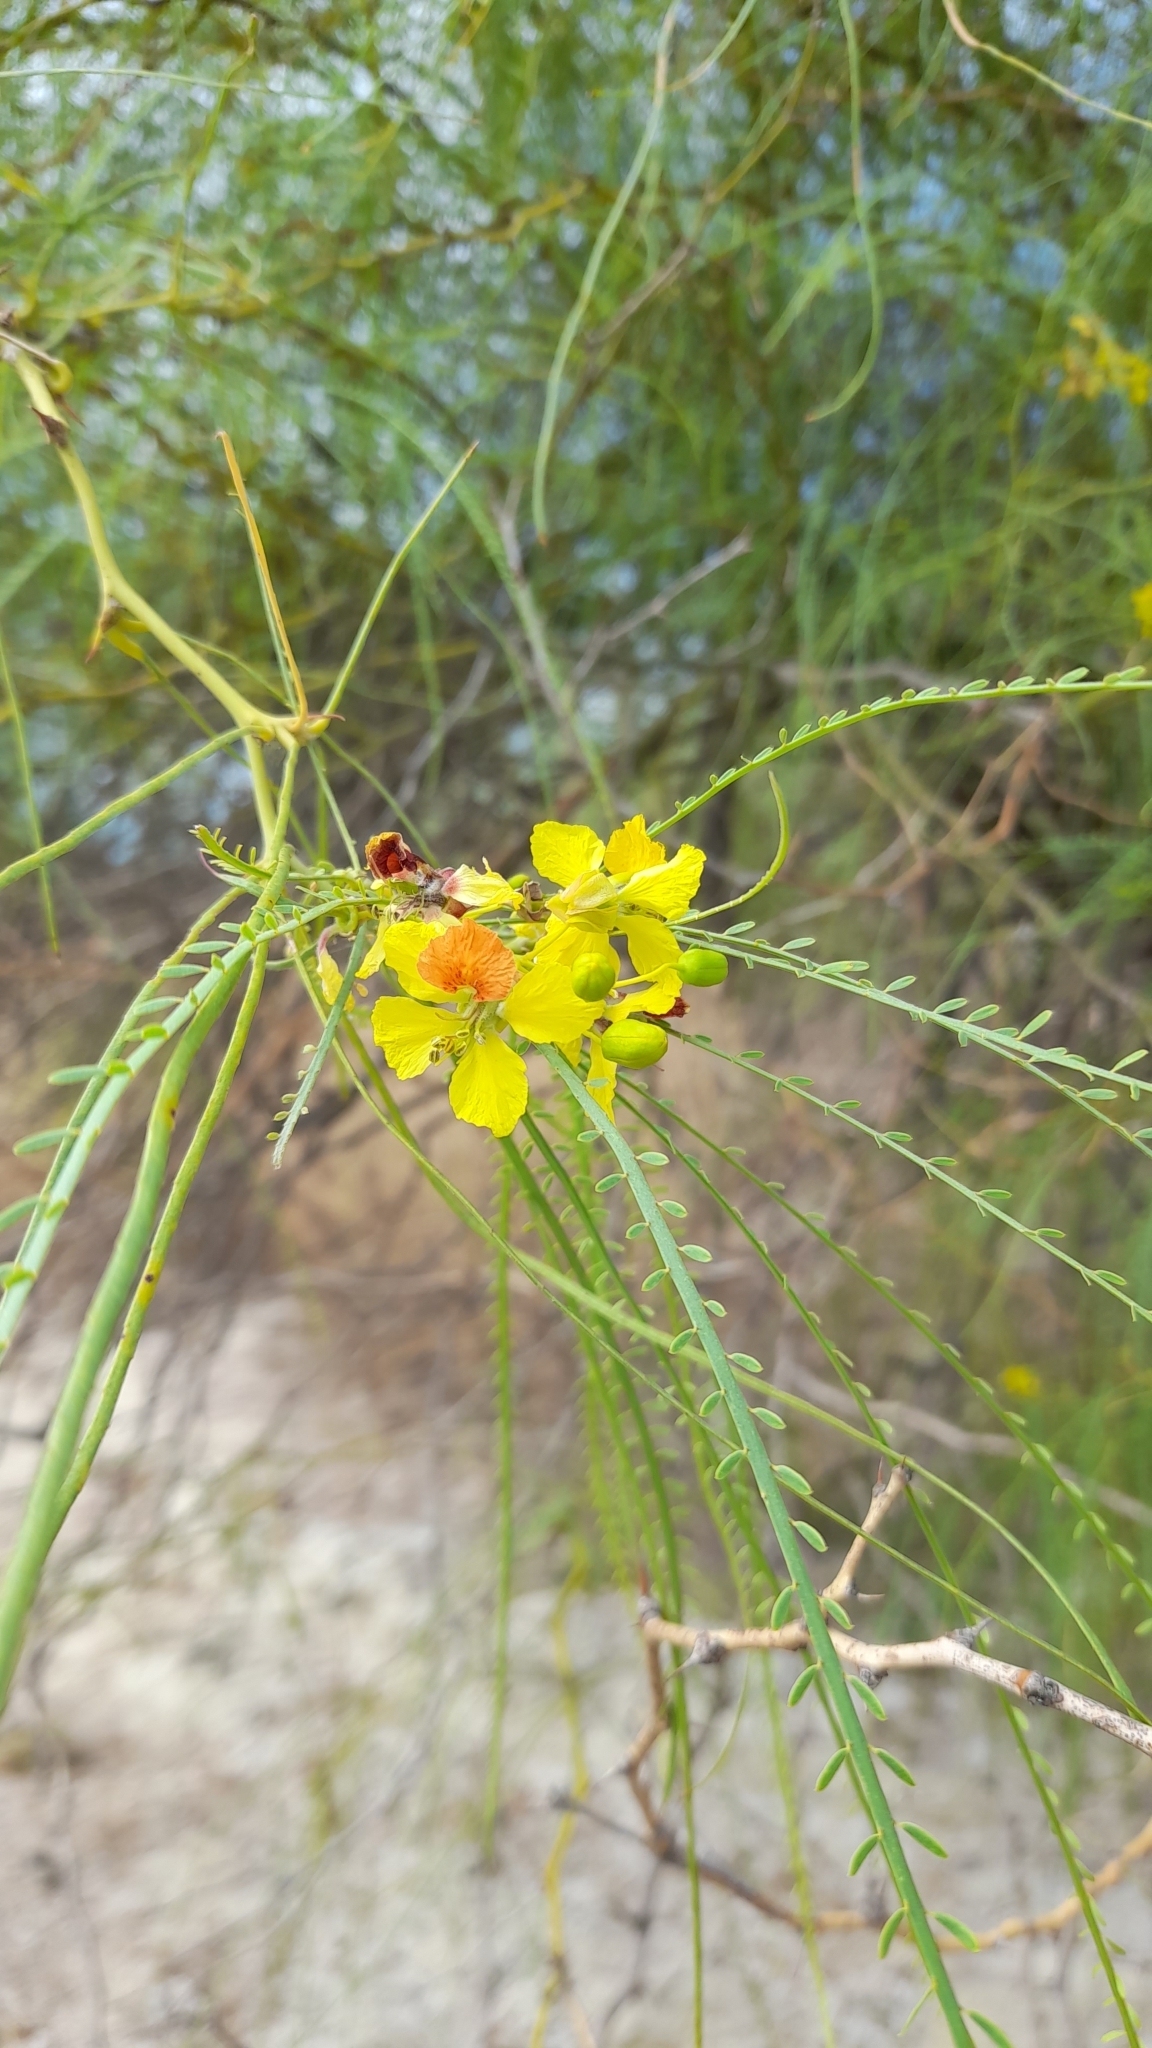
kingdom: Plantae
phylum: Tracheophyta
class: Magnoliopsida
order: Fabales
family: Fabaceae
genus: Parkinsonia
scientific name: Parkinsonia aculeata
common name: Jerusalem thorn
